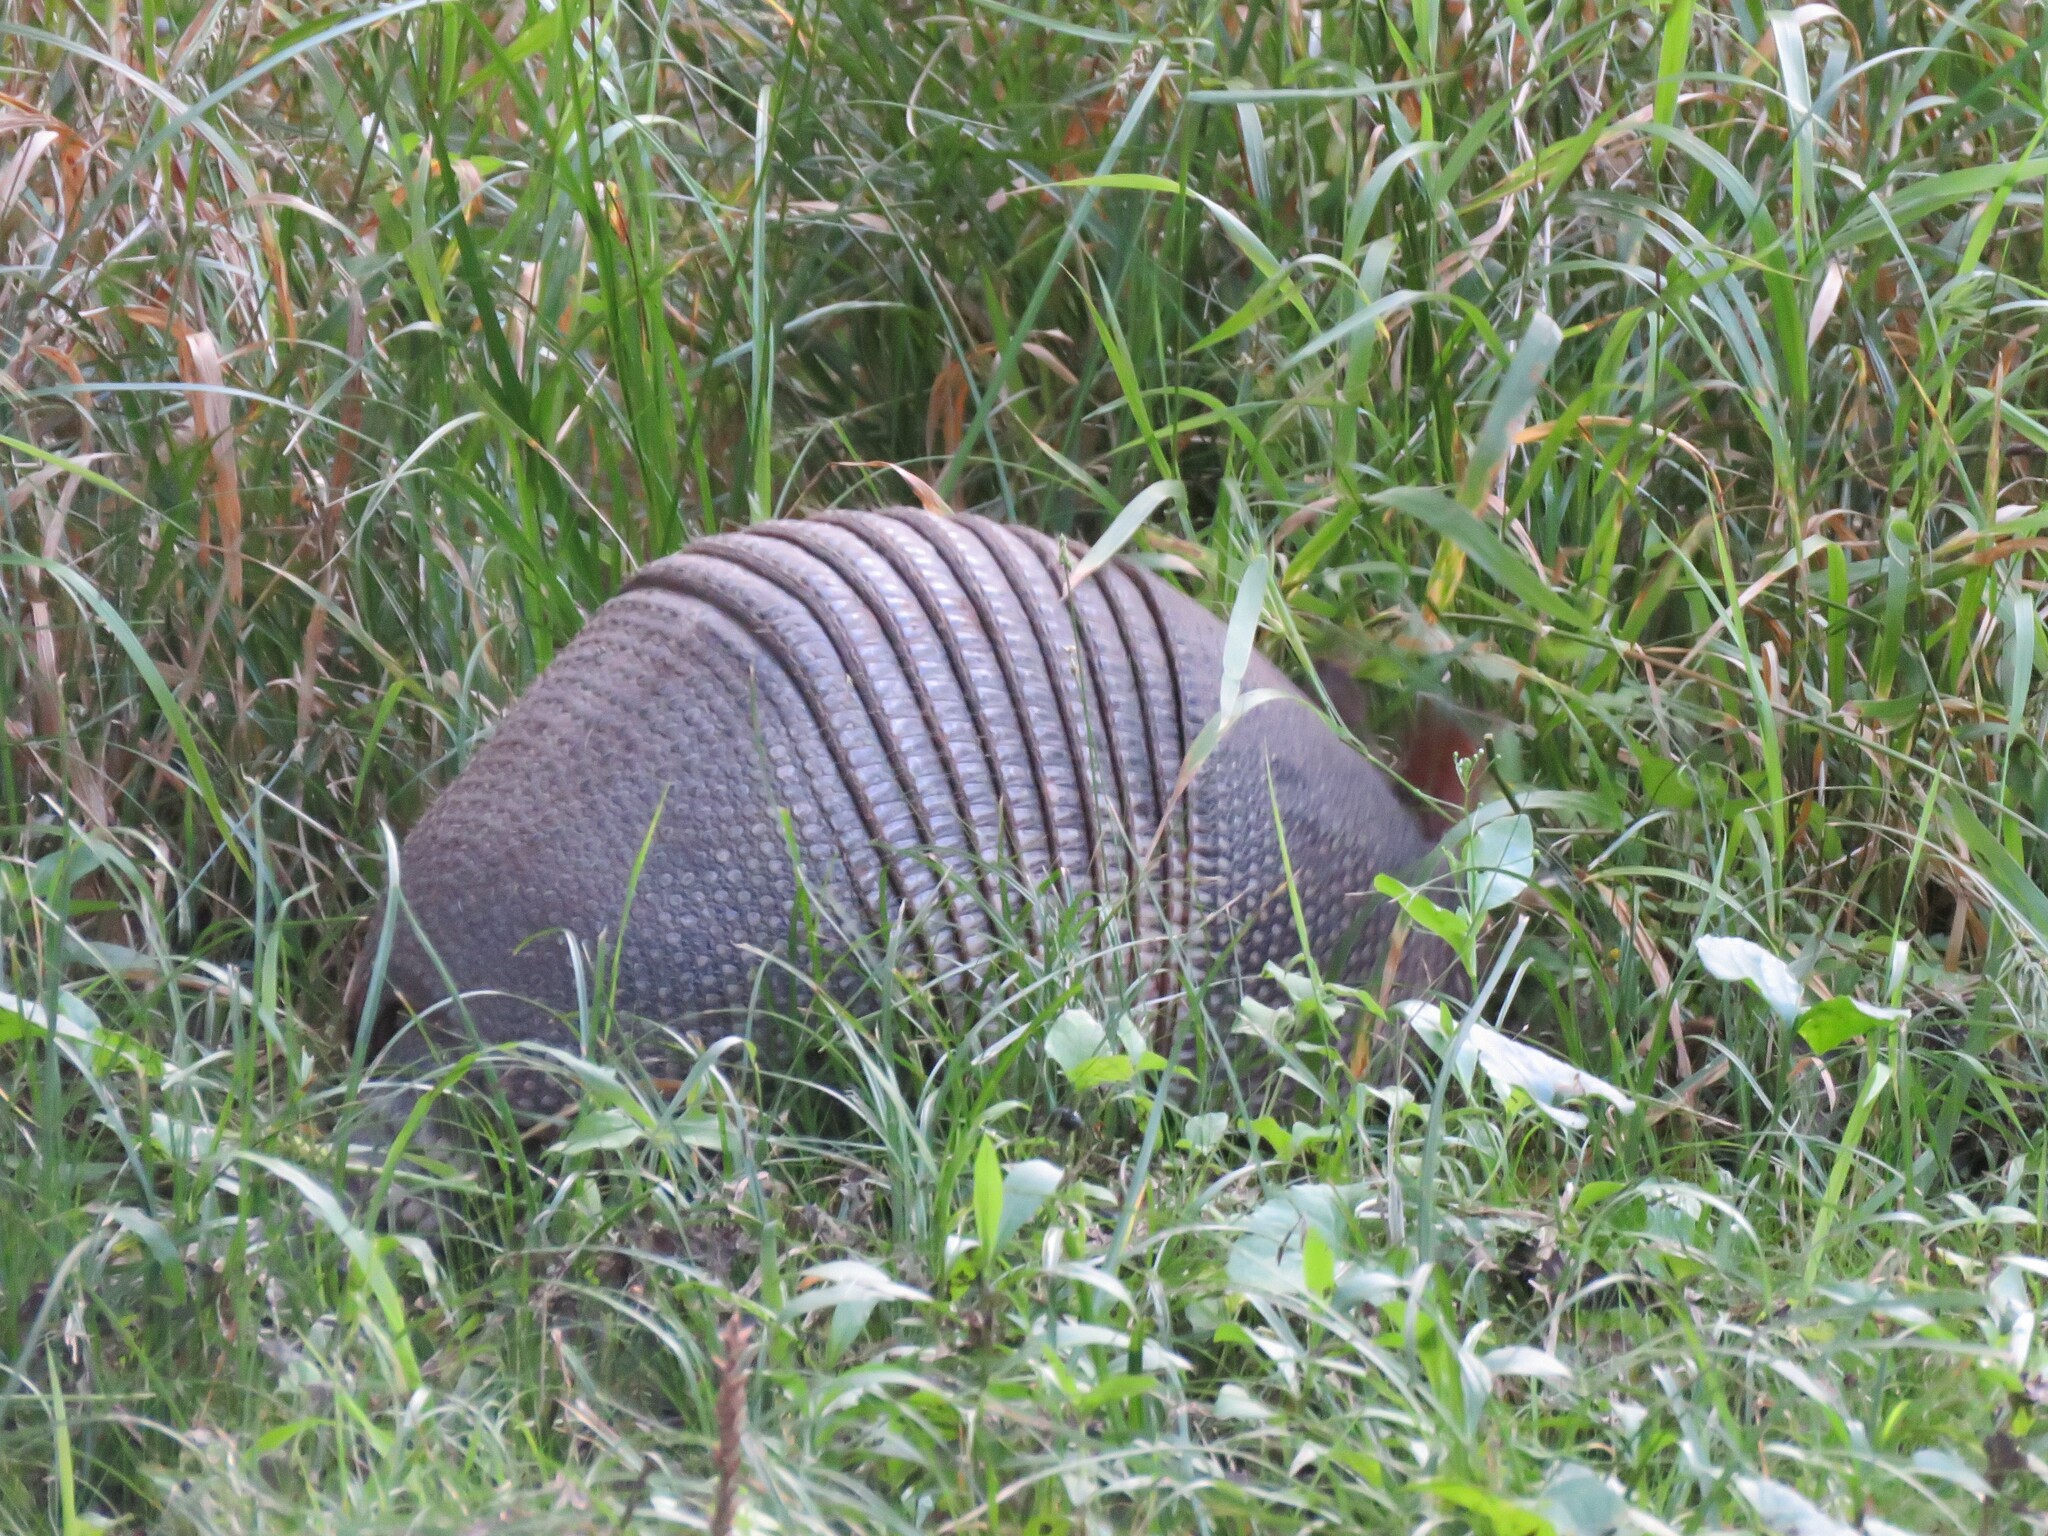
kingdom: Animalia
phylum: Chordata
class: Mammalia
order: Cingulata
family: Dasypodidae
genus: Dasypus
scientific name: Dasypus novemcinctus
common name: Nine-banded armadillo
